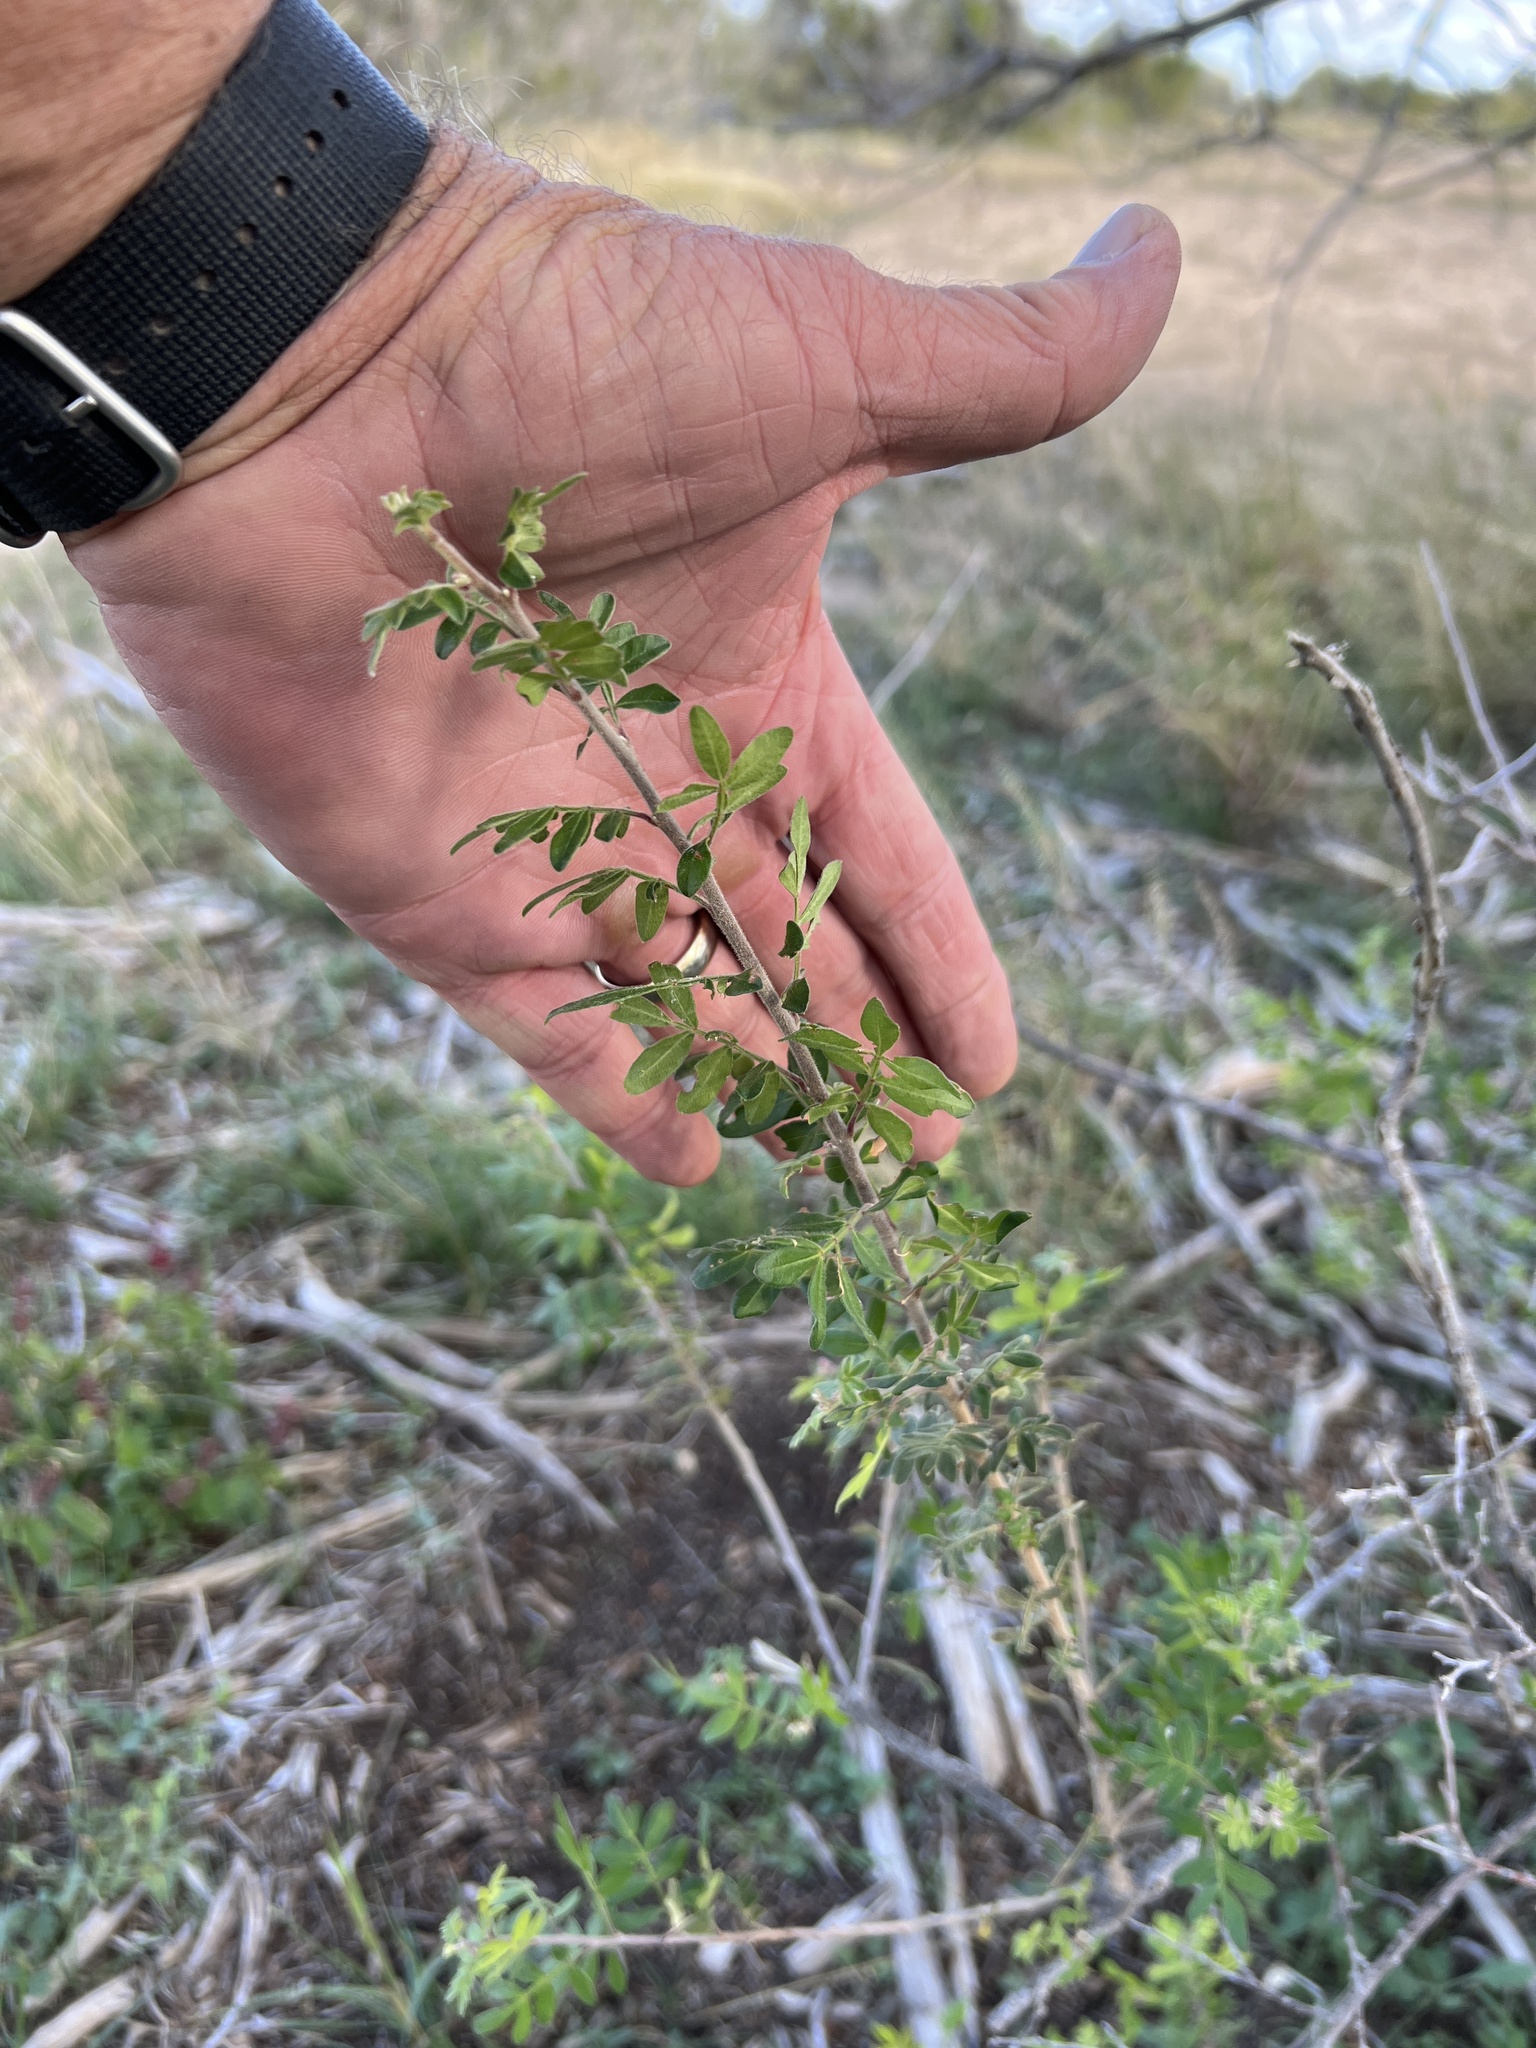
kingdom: Plantae
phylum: Tracheophyta
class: Magnoliopsida
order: Sapindales
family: Anacardiaceae
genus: Rhus
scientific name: Rhus microphylla
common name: Desert sumac
